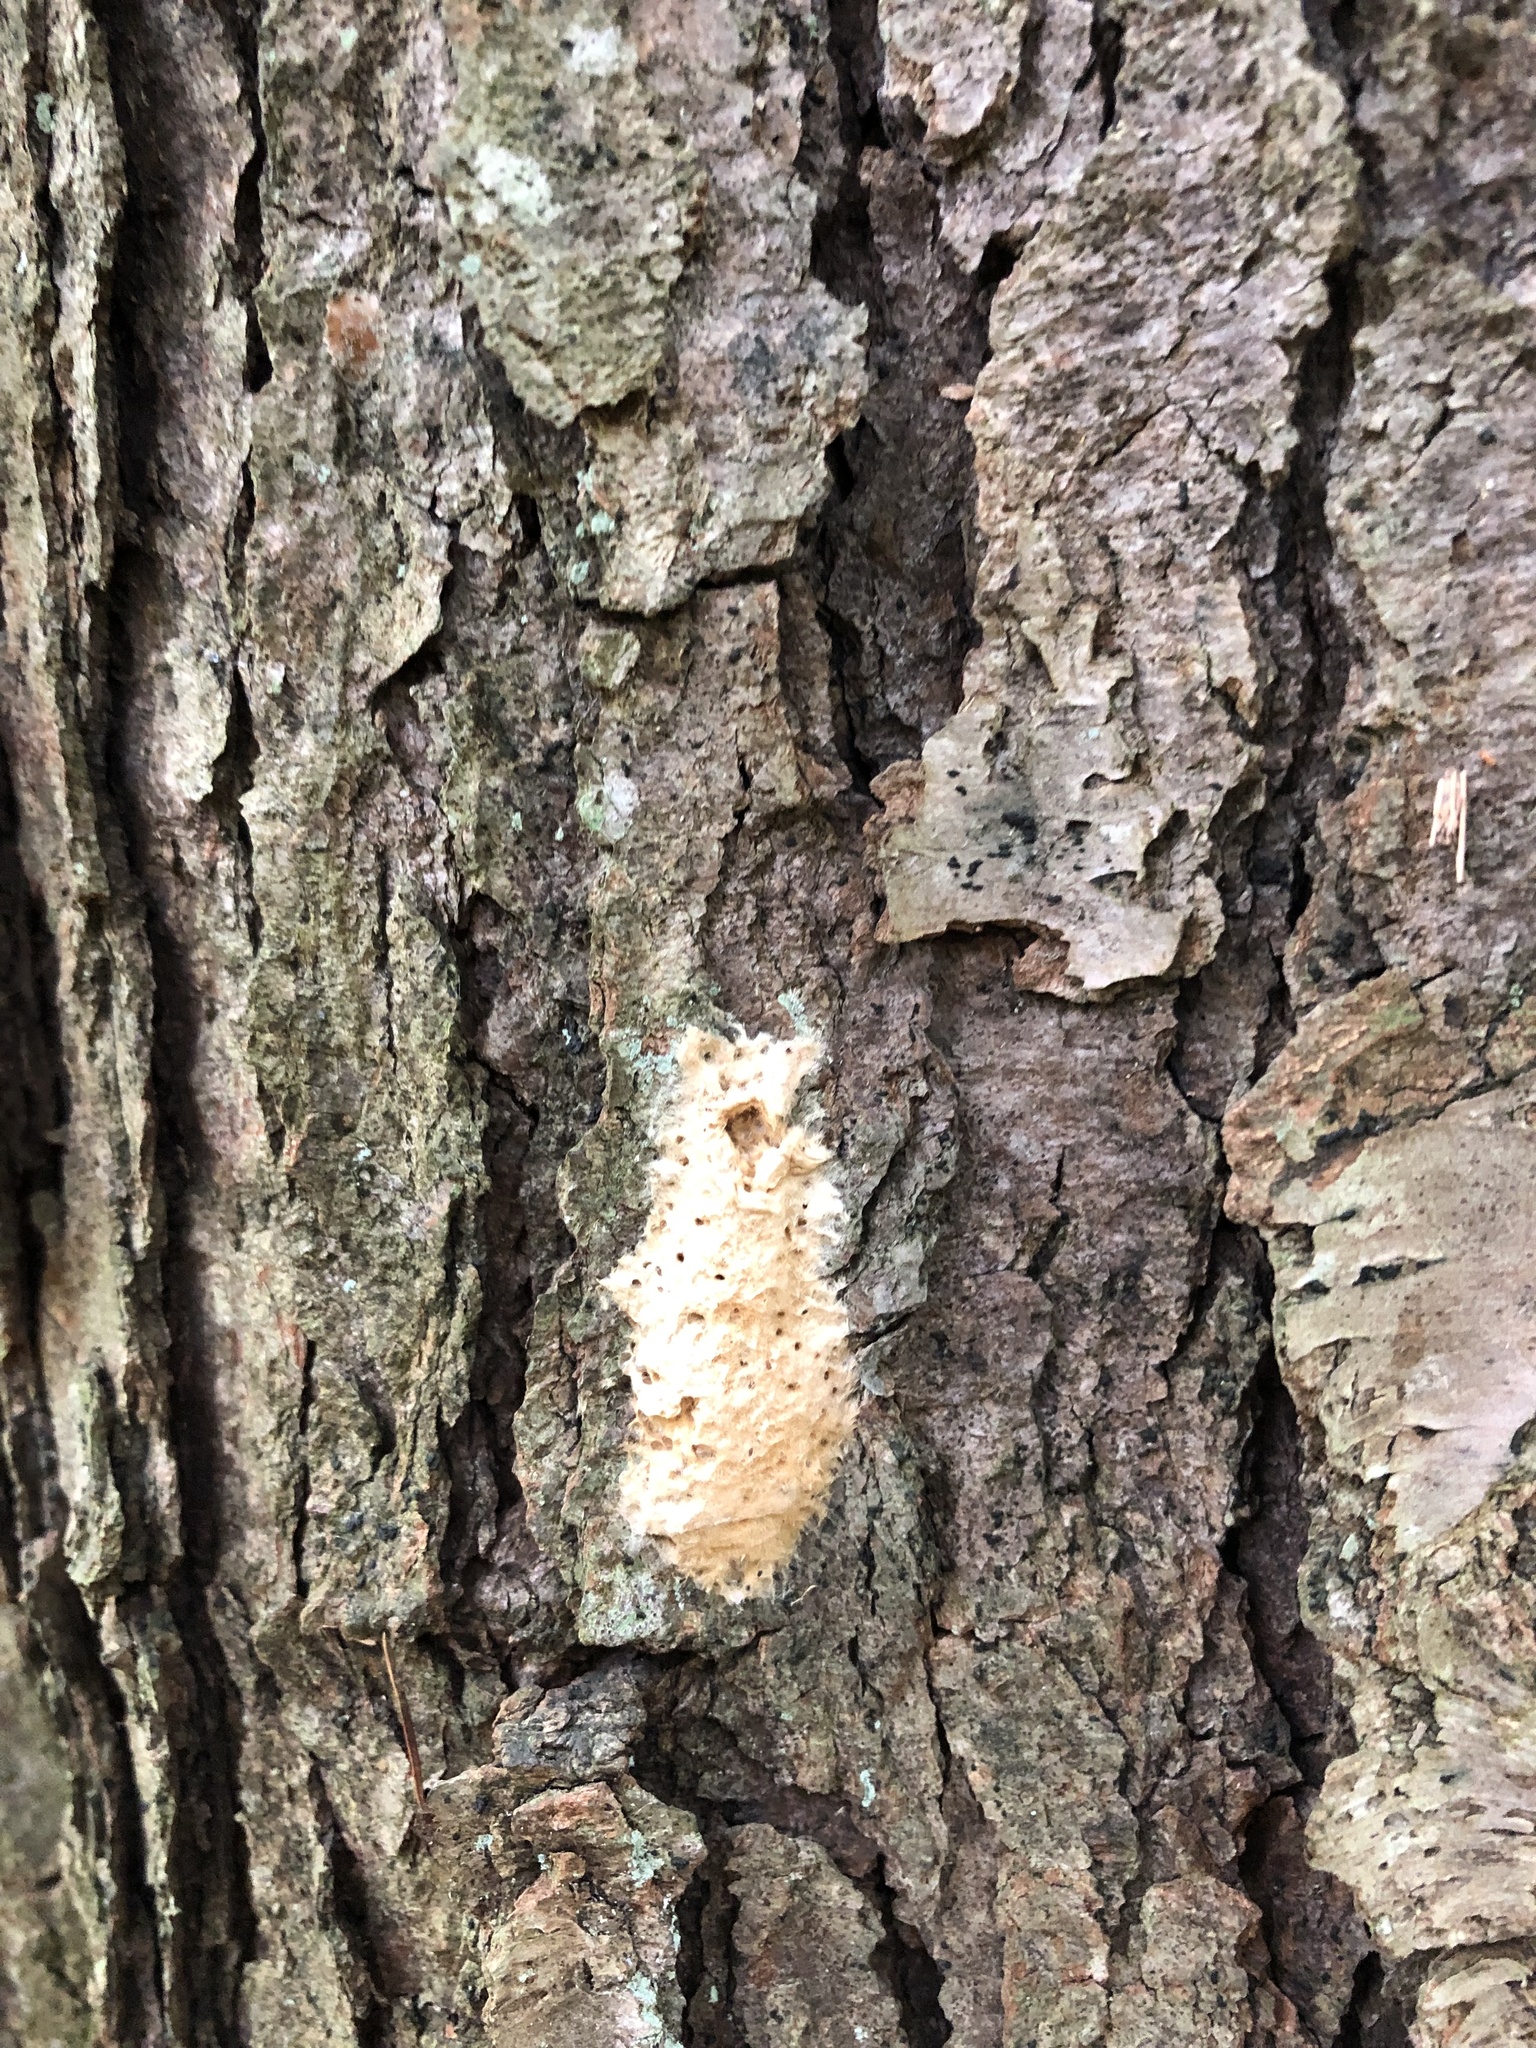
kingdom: Animalia
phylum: Arthropoda
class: Insecta
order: Lepidoptera
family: Erebidae
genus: Lymantria
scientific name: Lymantria dispar
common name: Gypsy moth
